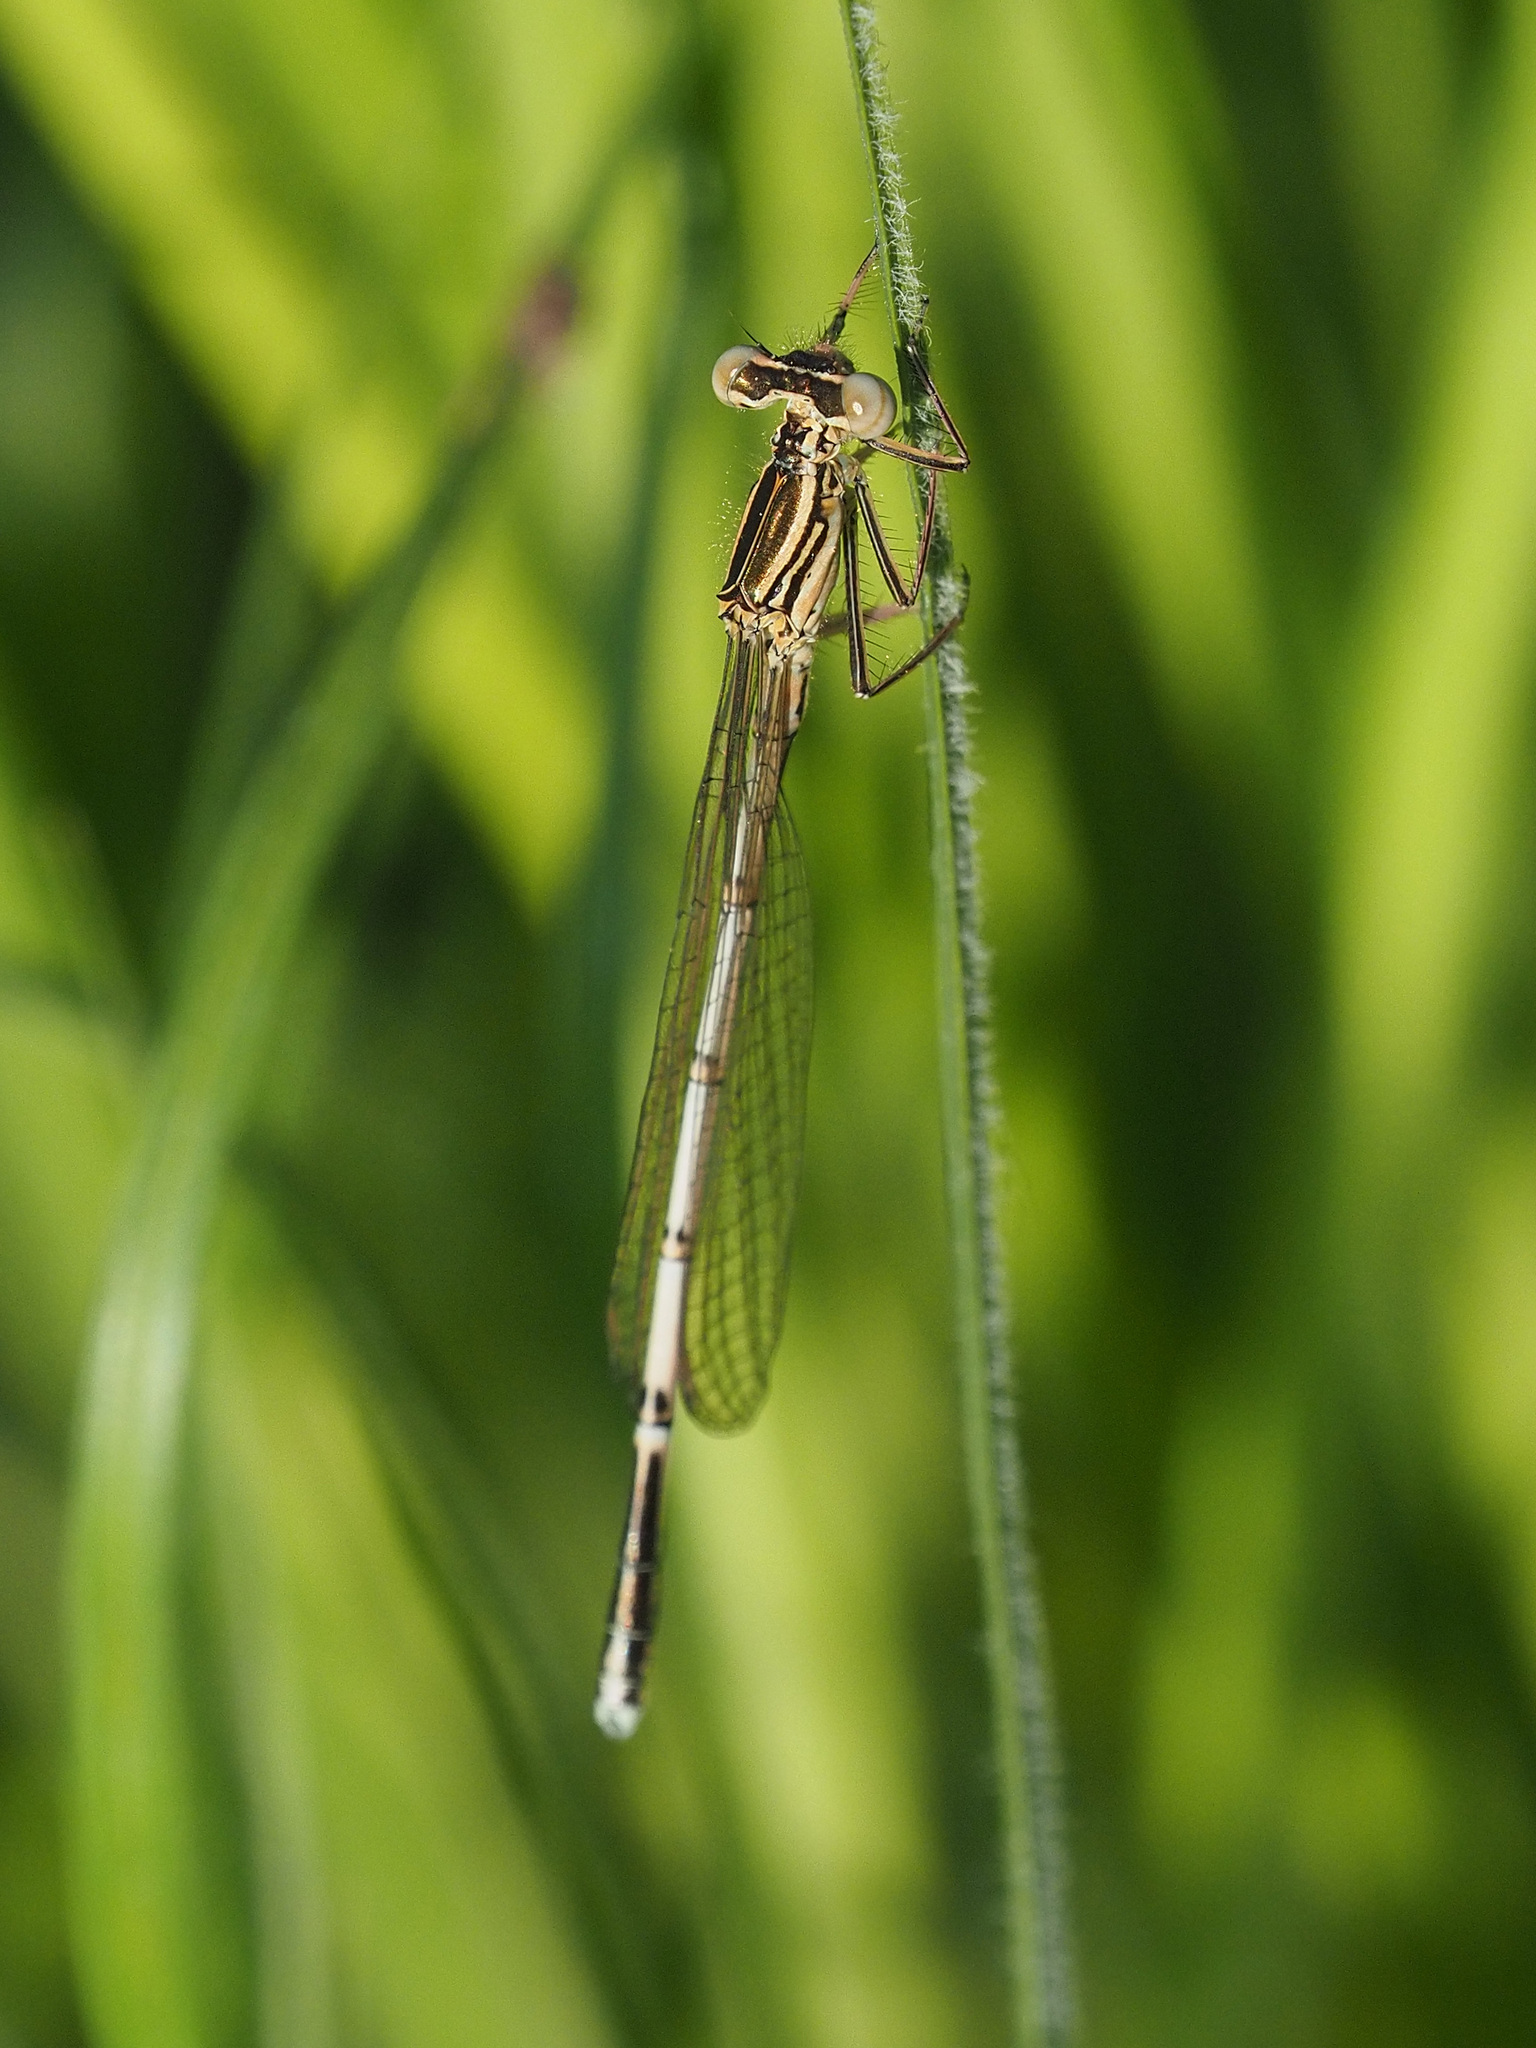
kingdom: Animalia
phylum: Arthropoda
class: Insecta
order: Odonata
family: Platycnemididae
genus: Platycnemis
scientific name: Platycnemis pennipes
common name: White-legged damselfly
